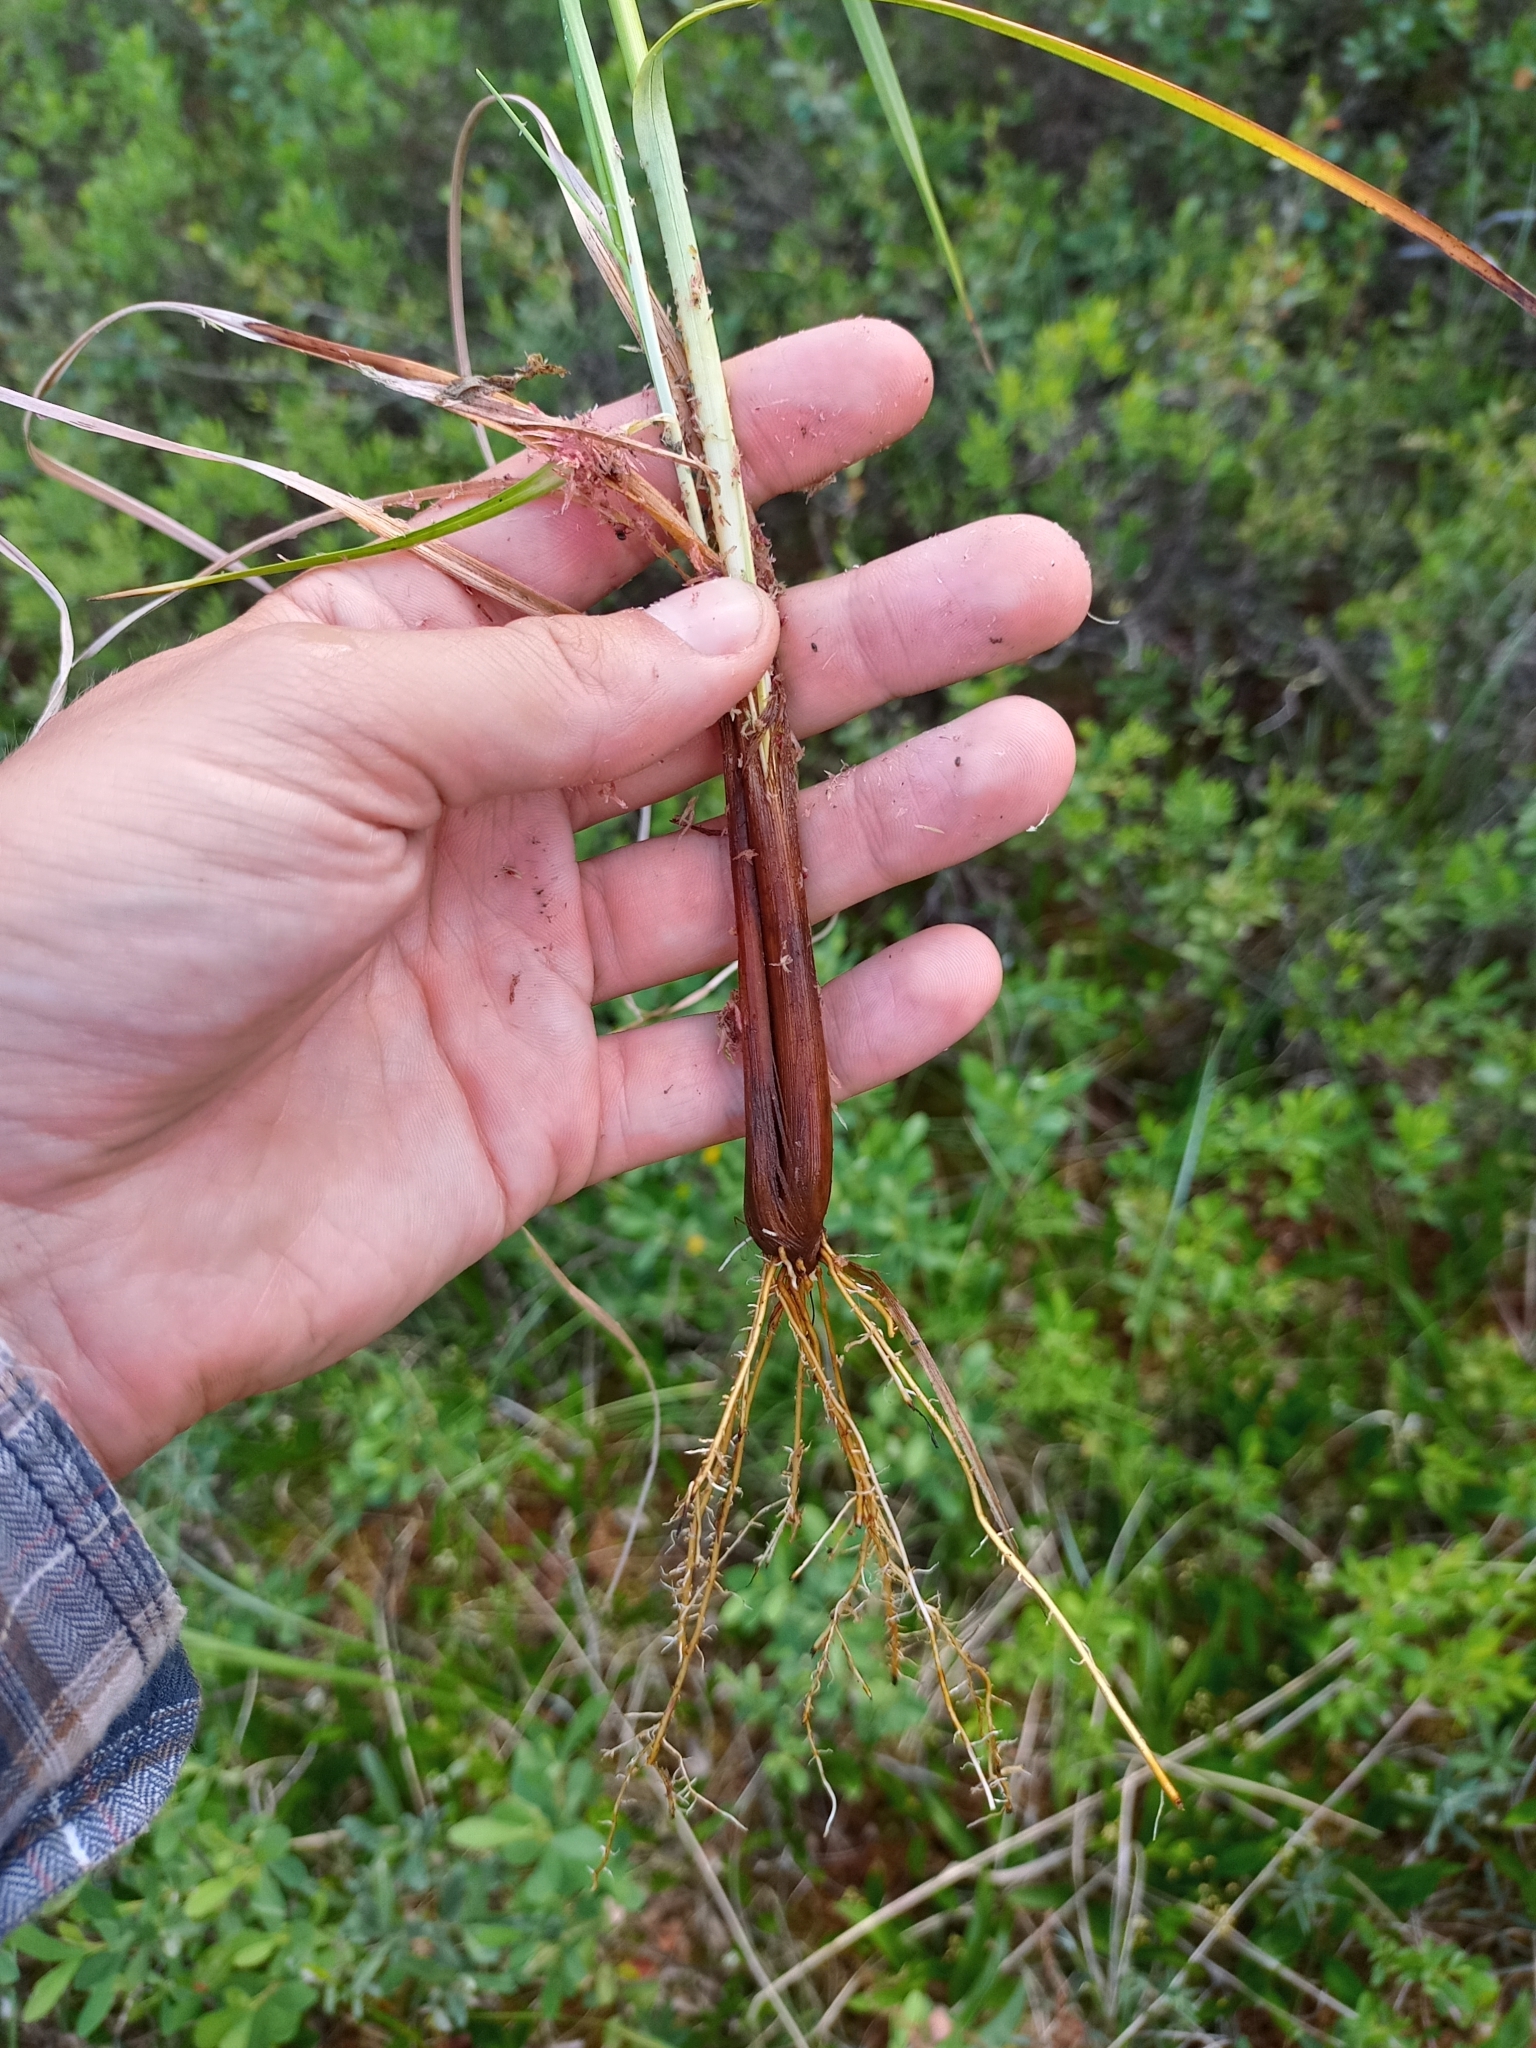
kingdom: Plantae
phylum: Tracheophyta
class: Liliopsida
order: Poales
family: Cyperaceae
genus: Eriophorum
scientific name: Eriophorum viridicarinatum
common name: Green-keeled cottongrass
